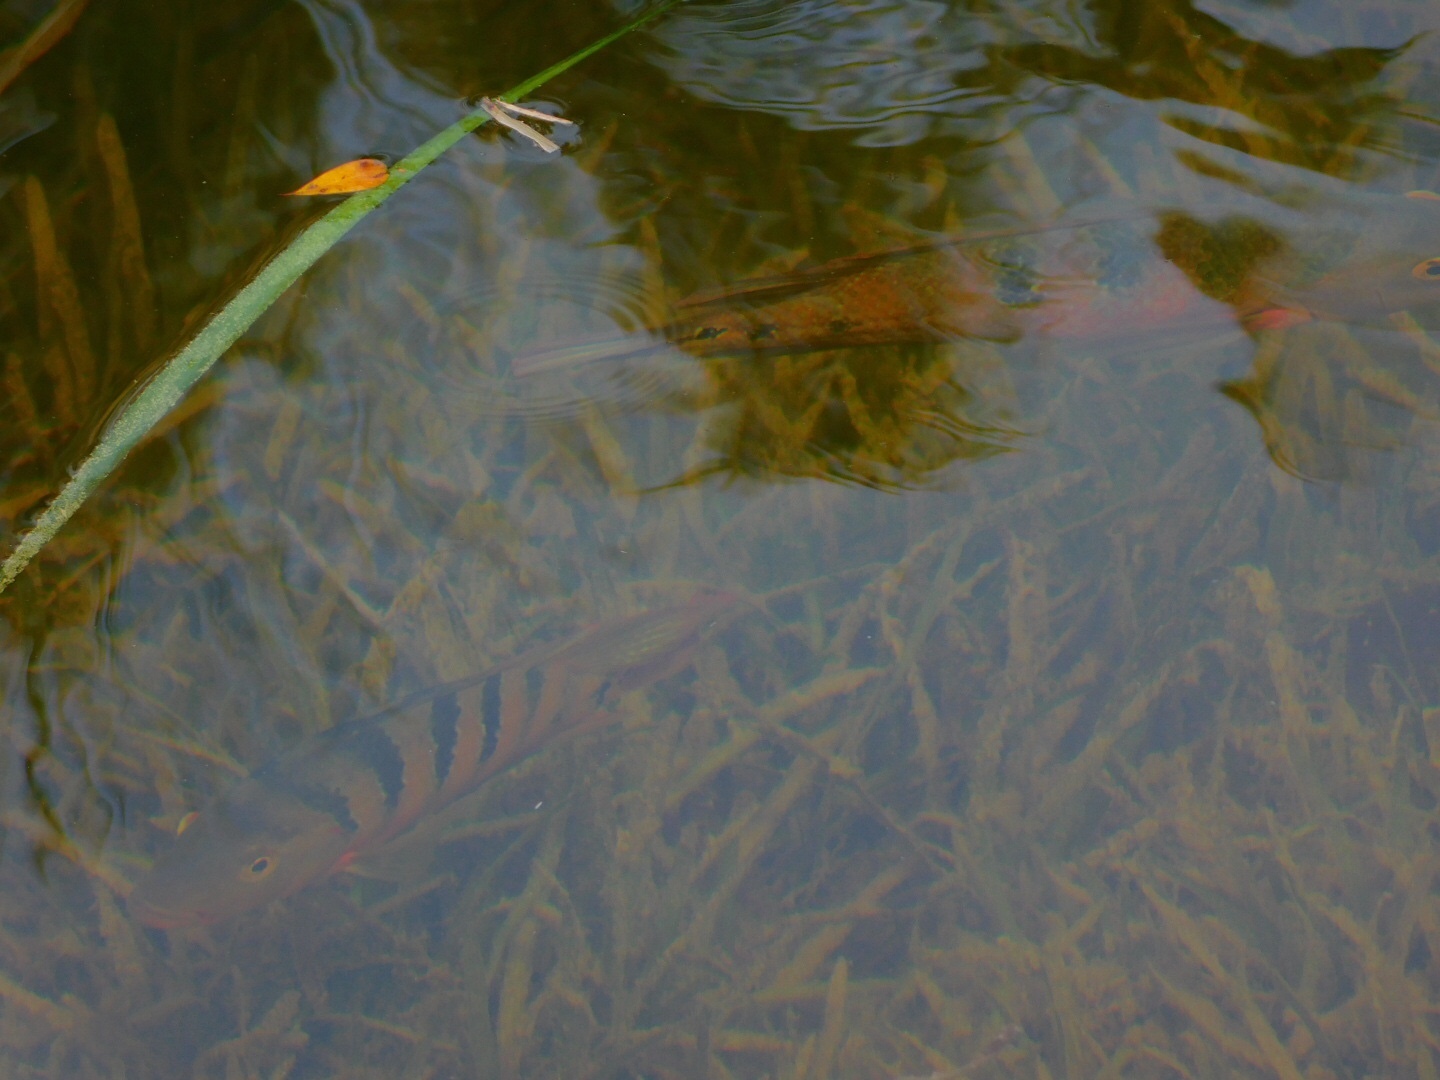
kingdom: Animalia
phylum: Chordata
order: Perciformes
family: Cichlidae
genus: Mayaheros
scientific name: Mayaheros urophthalmus
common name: Mayan cichlid
